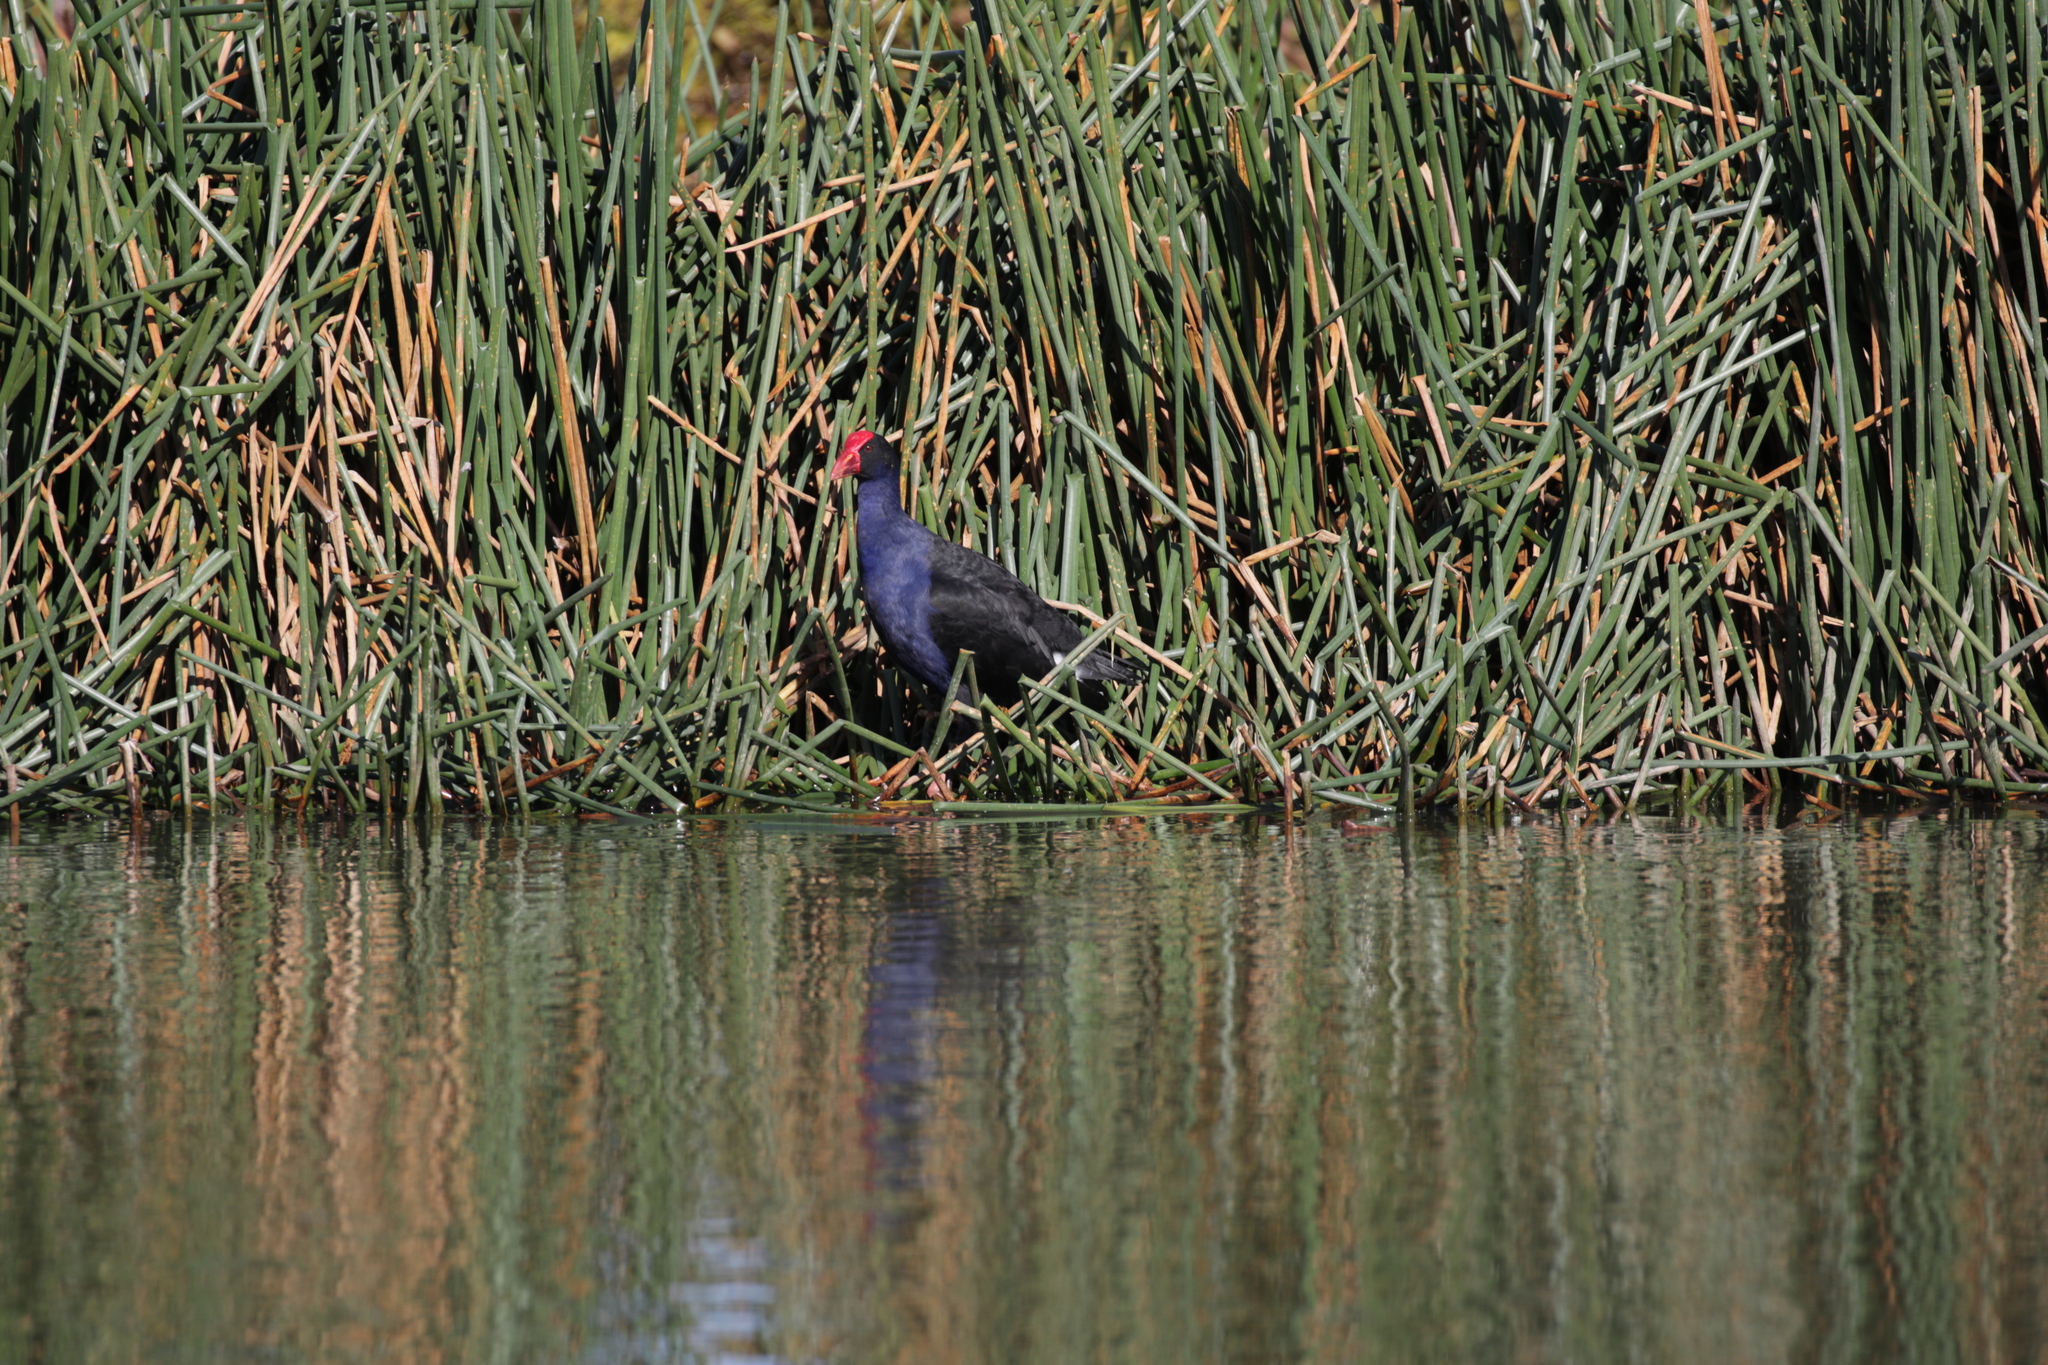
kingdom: Animalia
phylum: Chordata
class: Aves
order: Gruiformes
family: Rallidae
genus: Porphyrio
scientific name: Porphyrio melanotus
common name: Australasian swamphen
